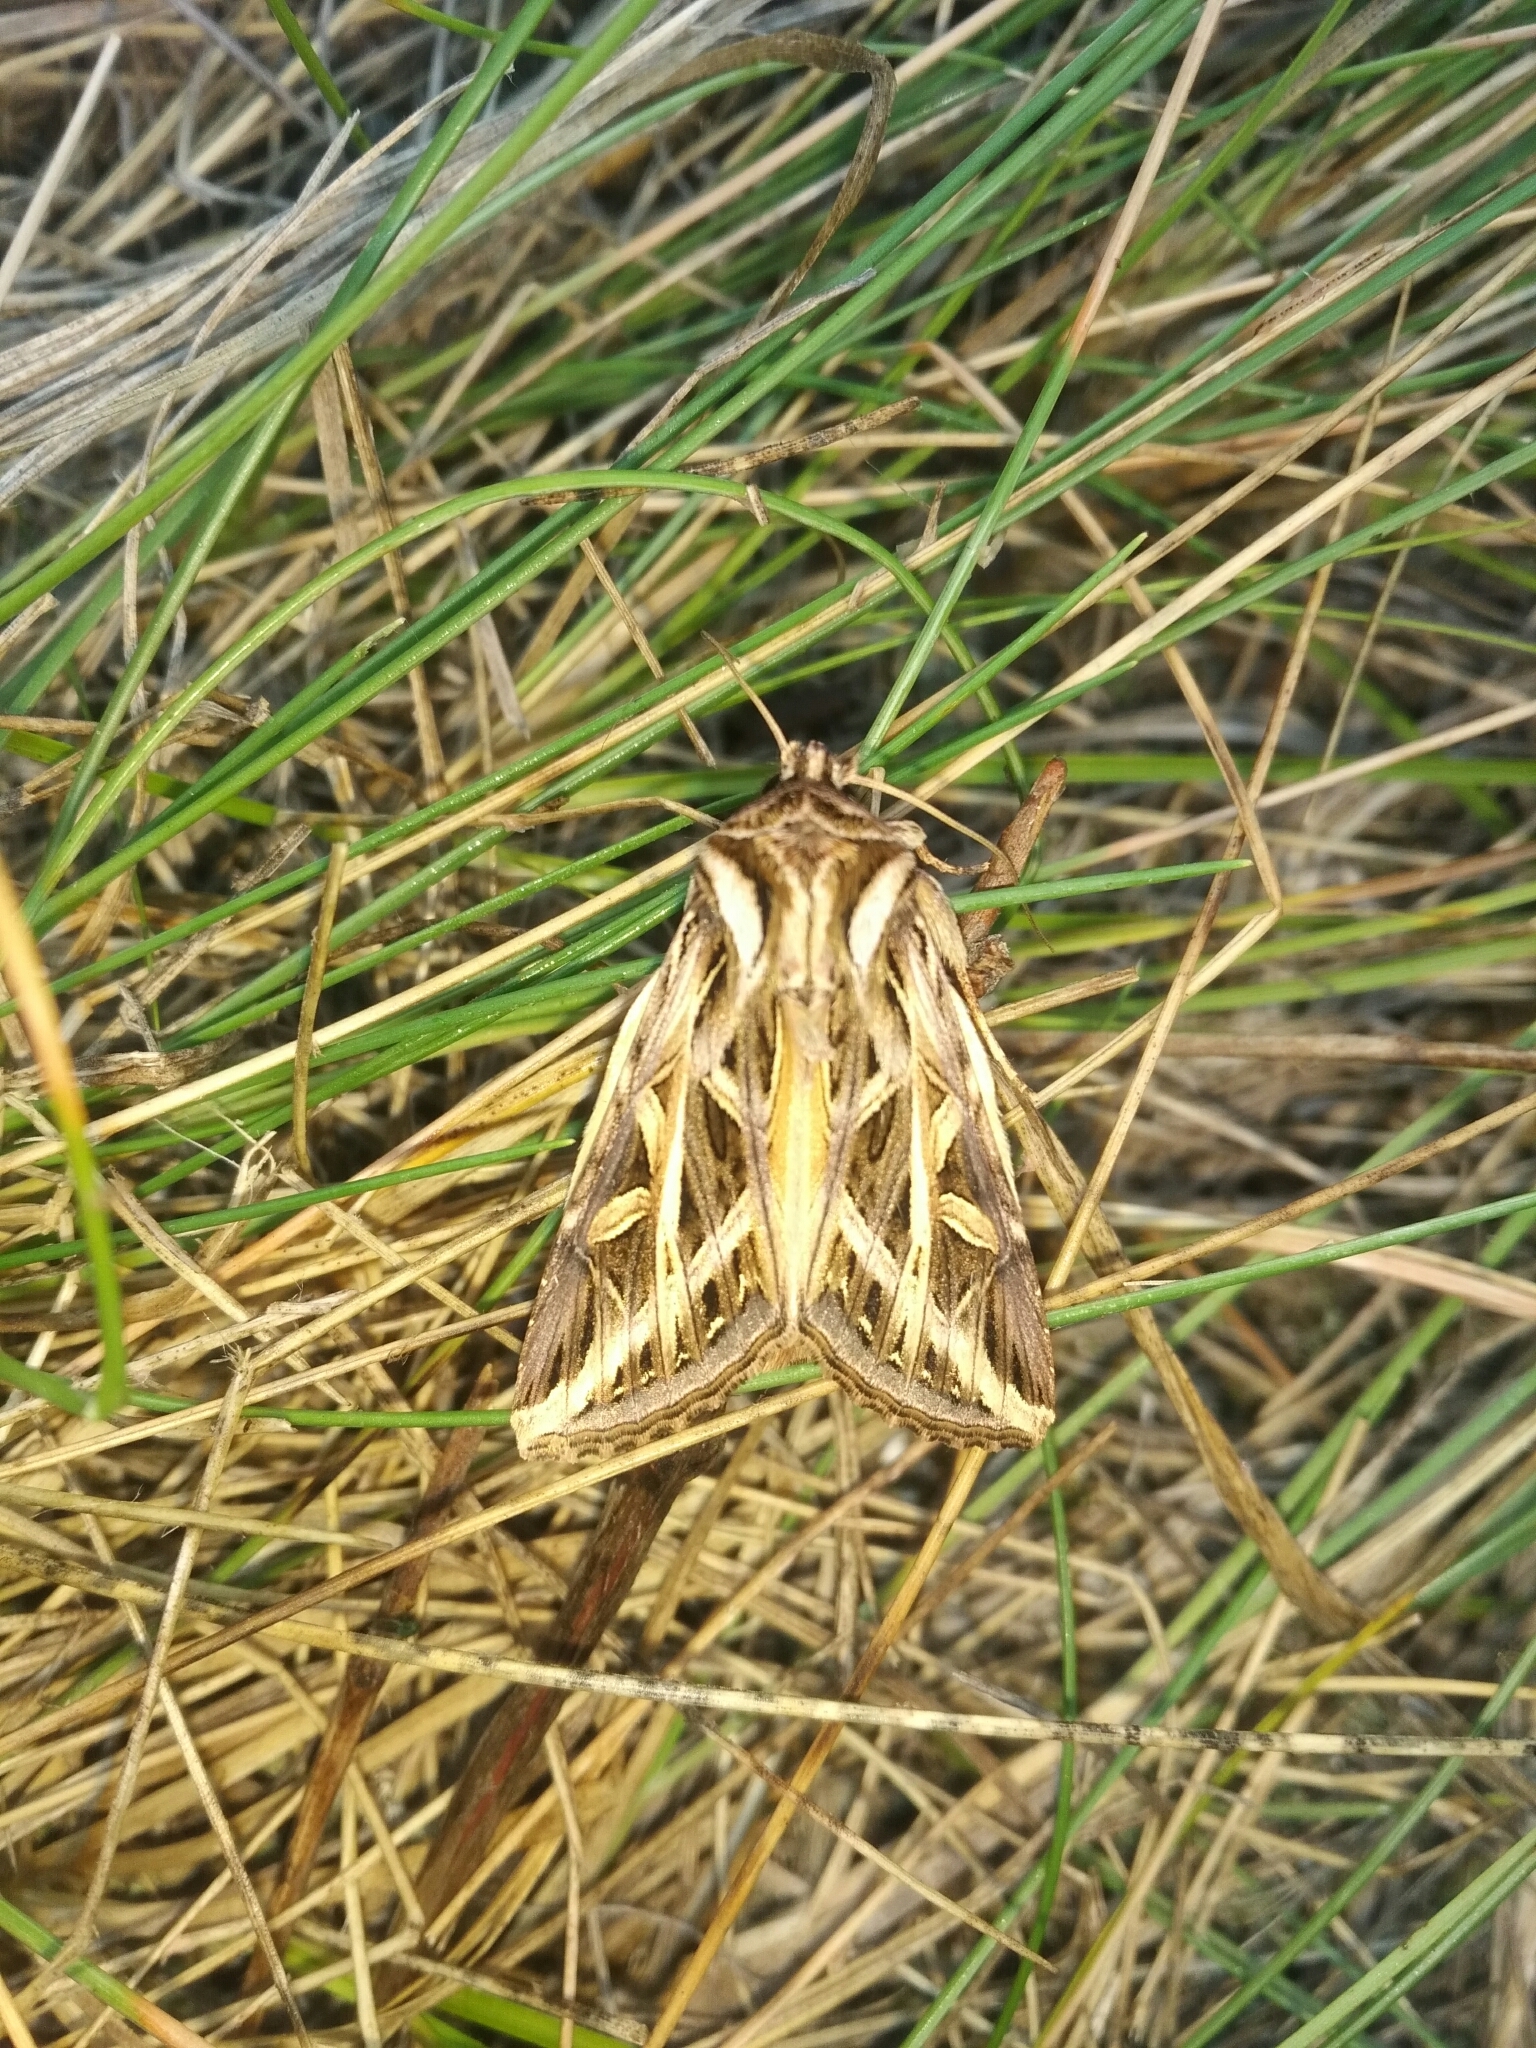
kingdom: Animalia
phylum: Arthropoda
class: Insecta
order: Lepidoptera
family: Noctuidae
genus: Dargida
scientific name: Dargida procinctus
